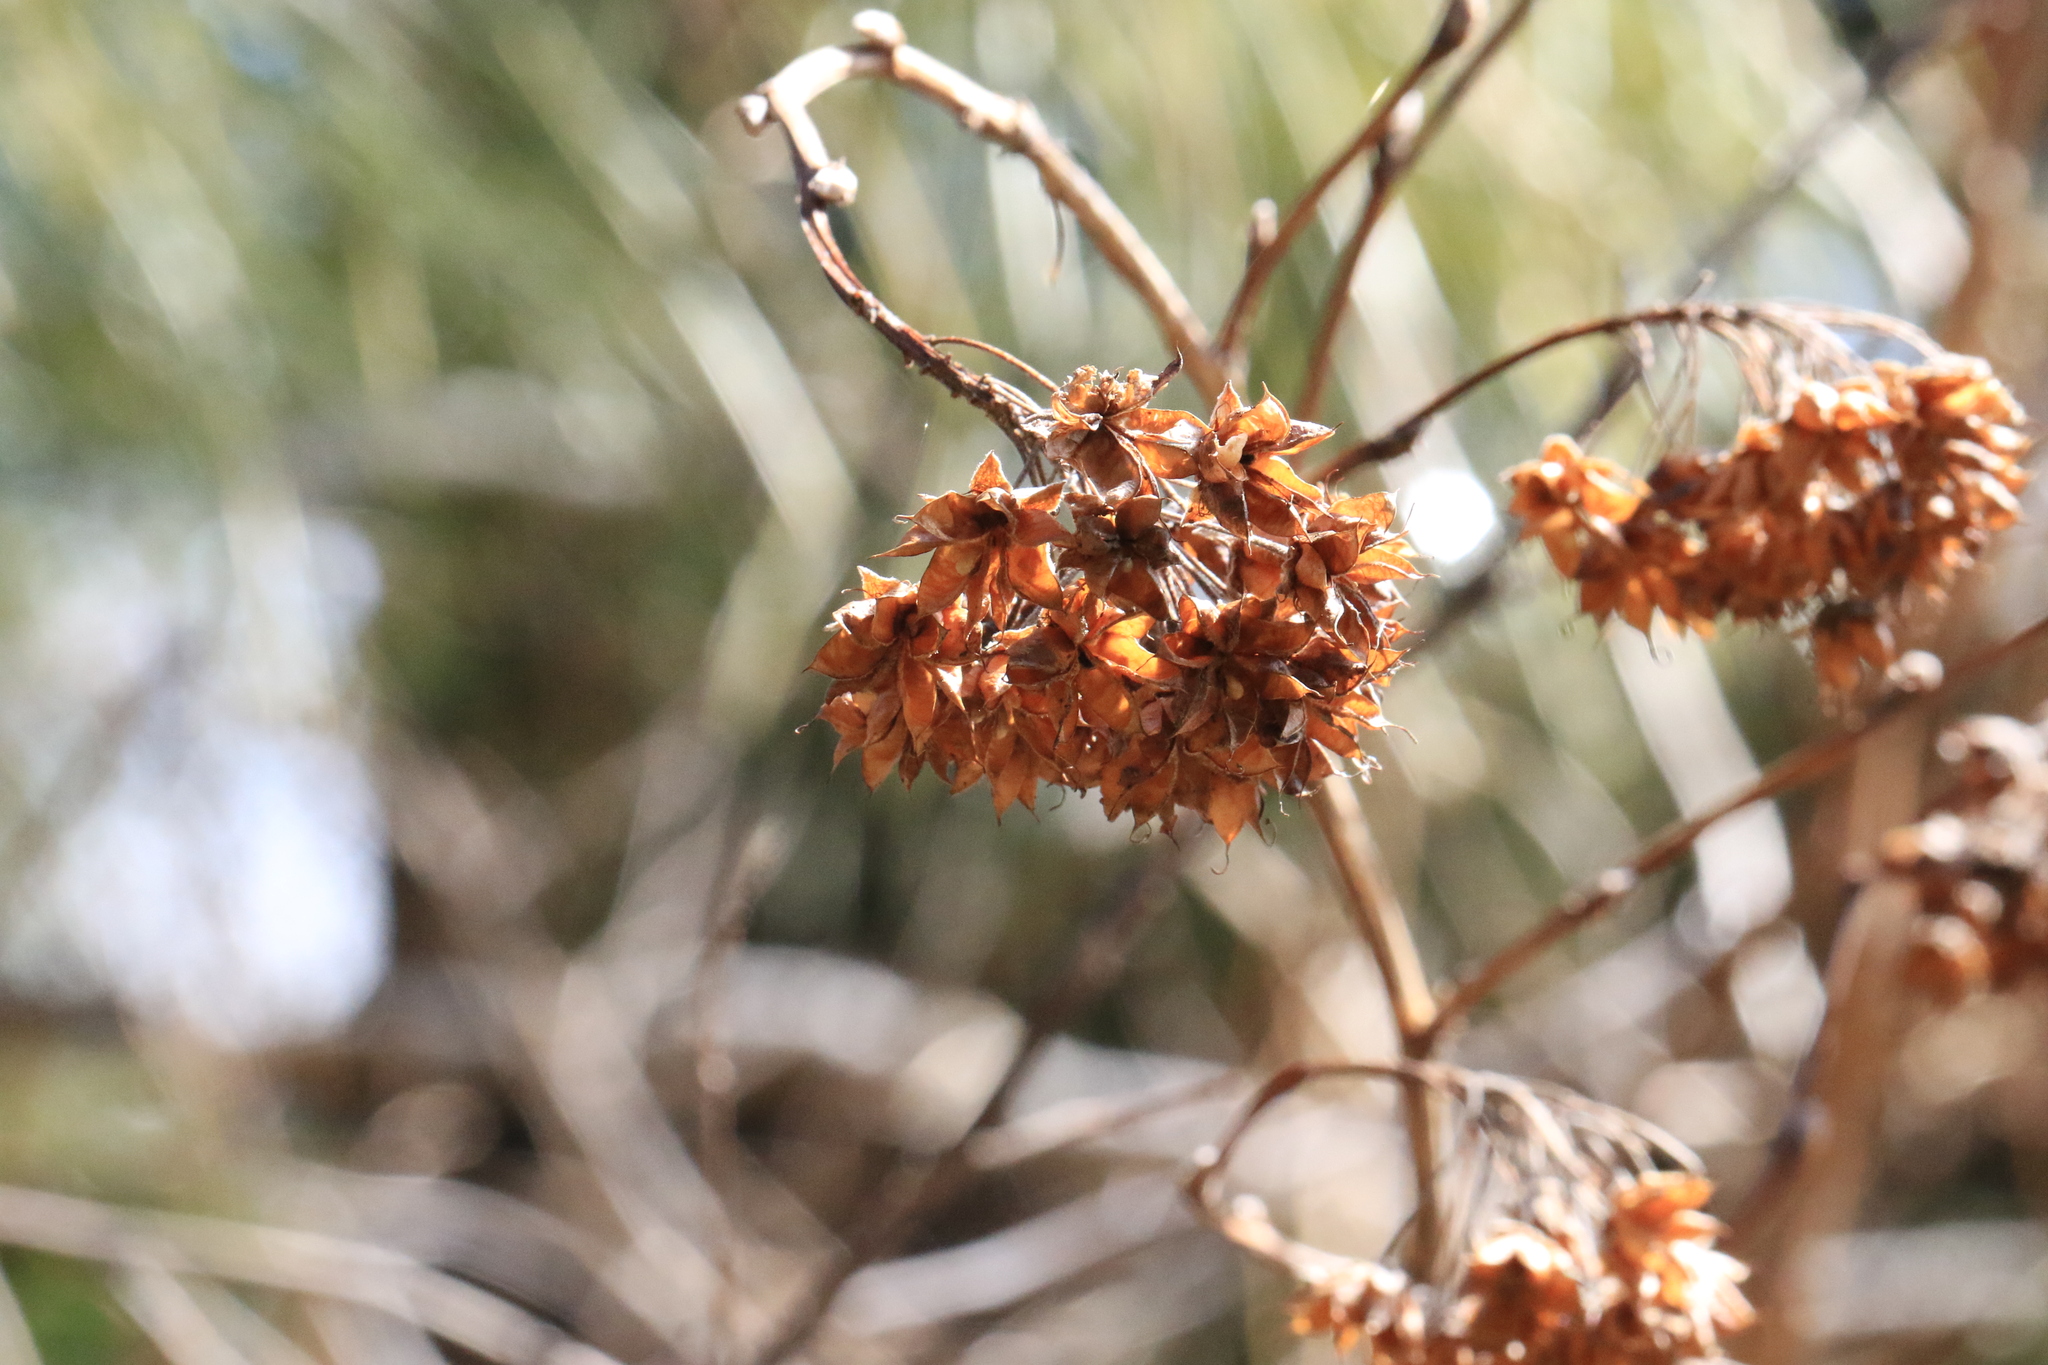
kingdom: Plantae
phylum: Tracheophyta
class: Magnoliopsida
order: Rosales
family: Rosaceae
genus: Physocarpus
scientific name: Physocarpus capitatus
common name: Pacific ninebark
